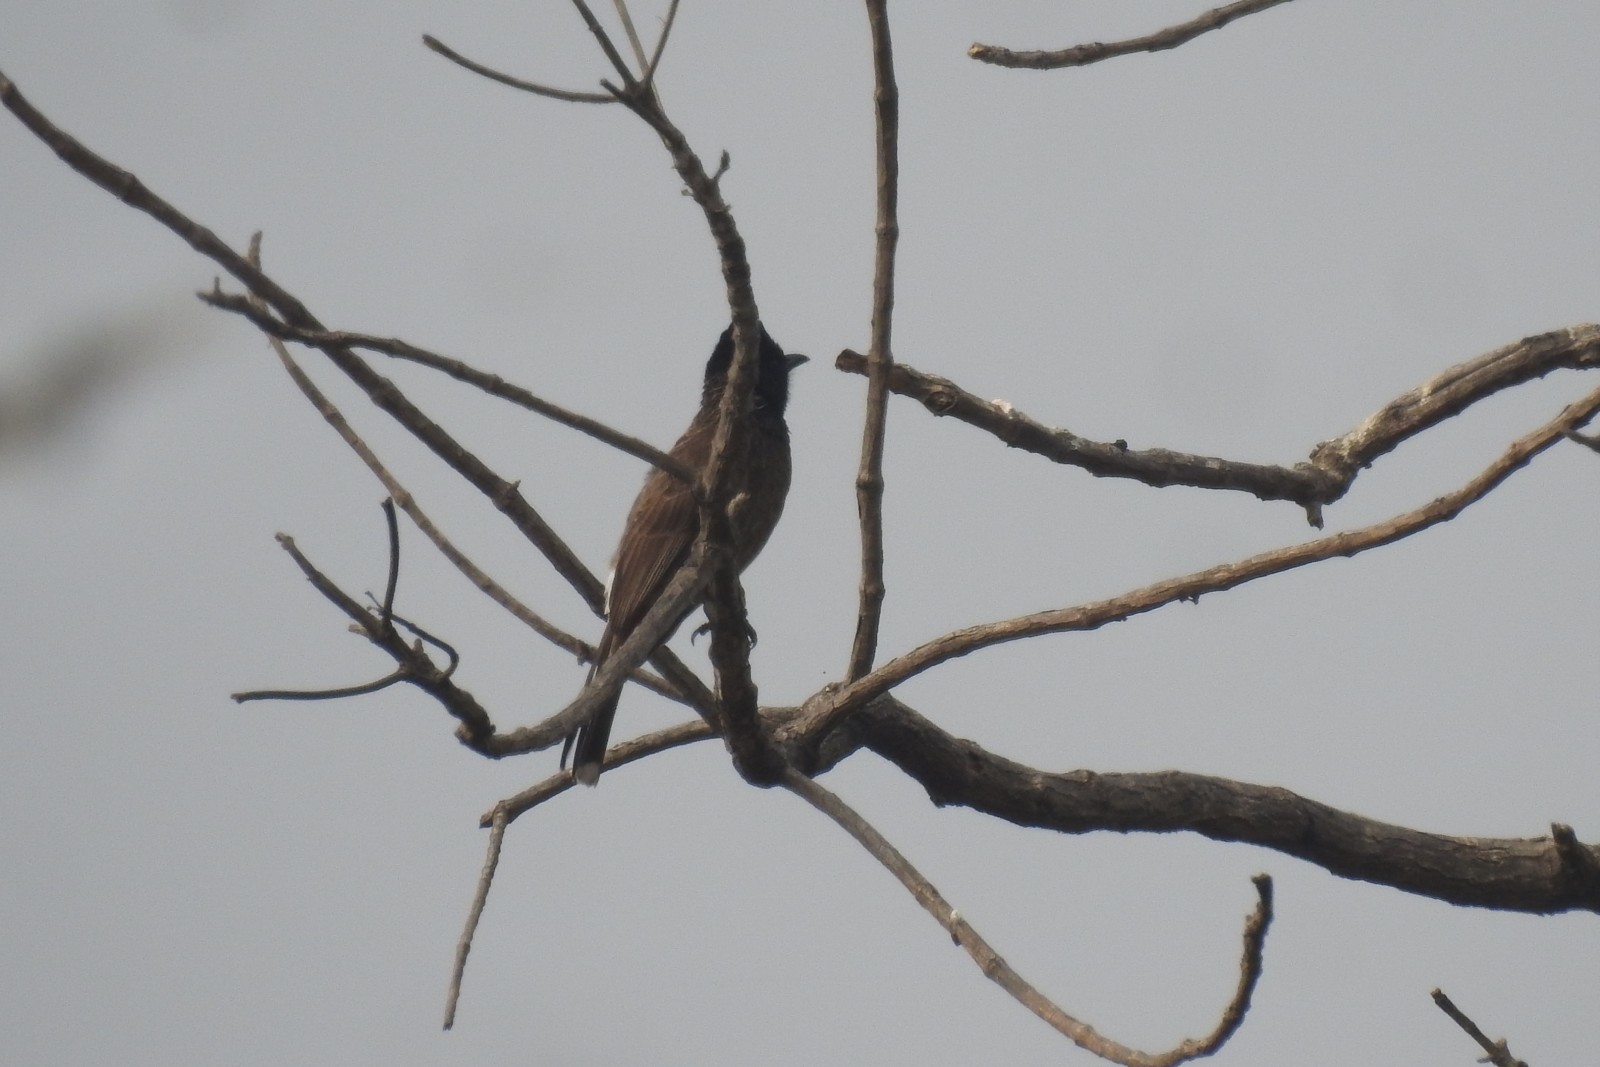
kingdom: Animalia
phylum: Chordata
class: Aves
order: Passeriformes
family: Pycnonotidae
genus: Pycnonotus
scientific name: Pycnonotus cafer
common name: Red-vented bulbul
